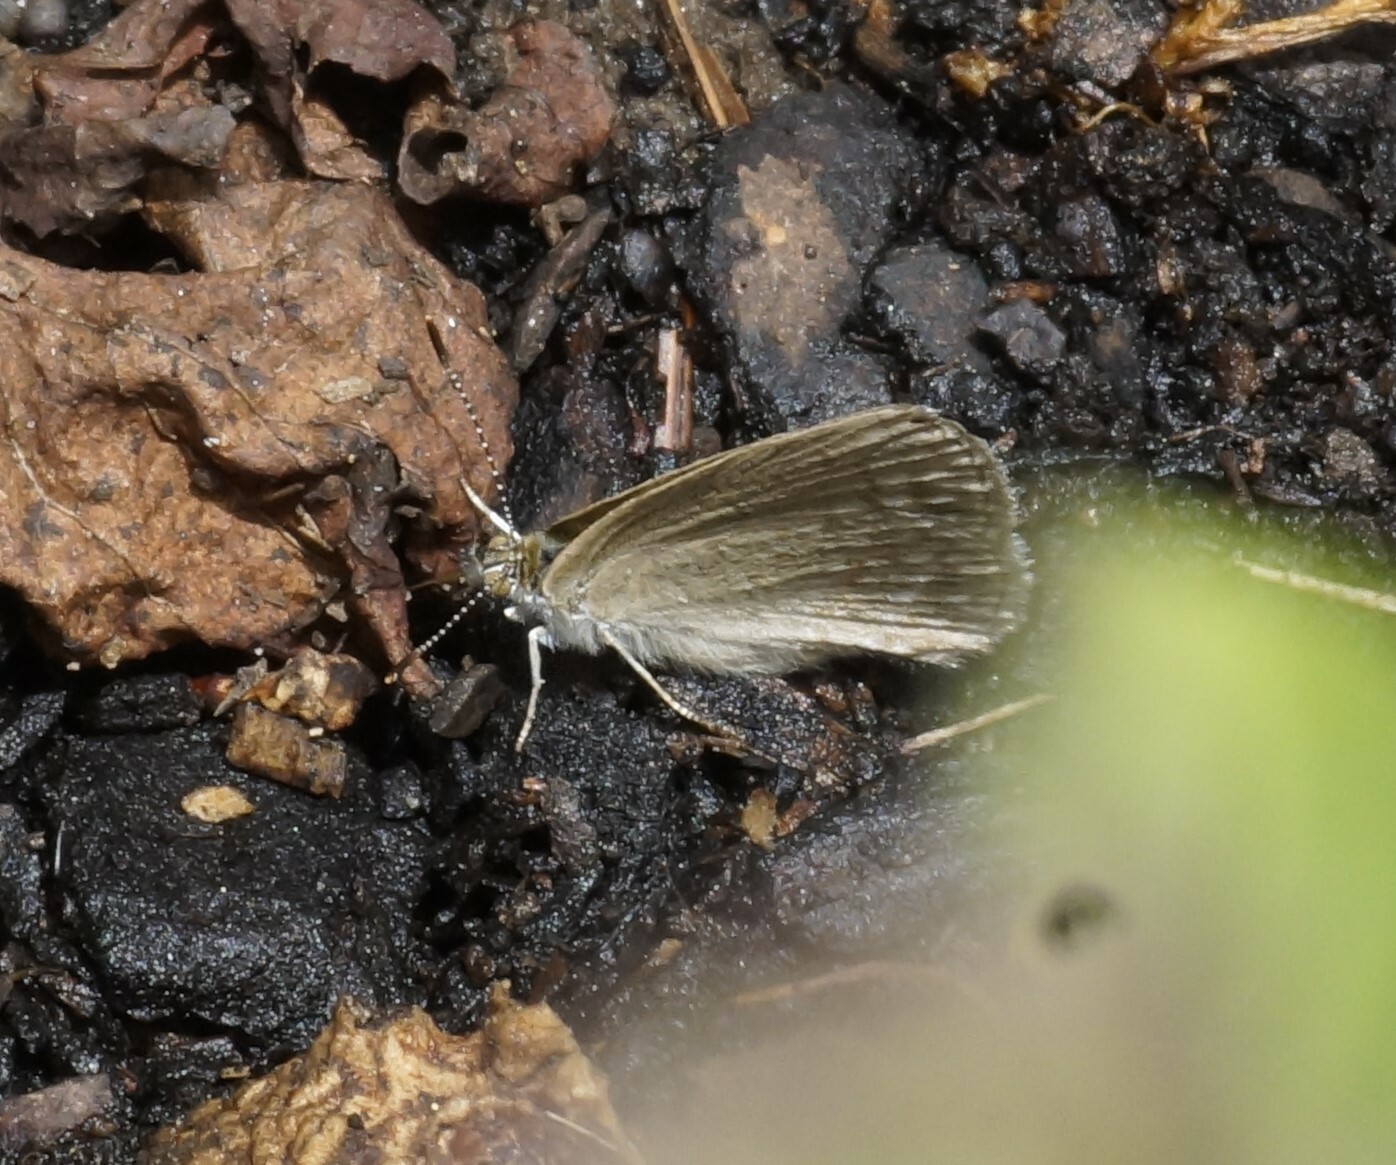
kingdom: Animalia
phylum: Arthropoda
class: Insecta
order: Lepidoptera
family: Lycaenidae
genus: Zizina
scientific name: Zizina otis
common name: Lesser grass blue
